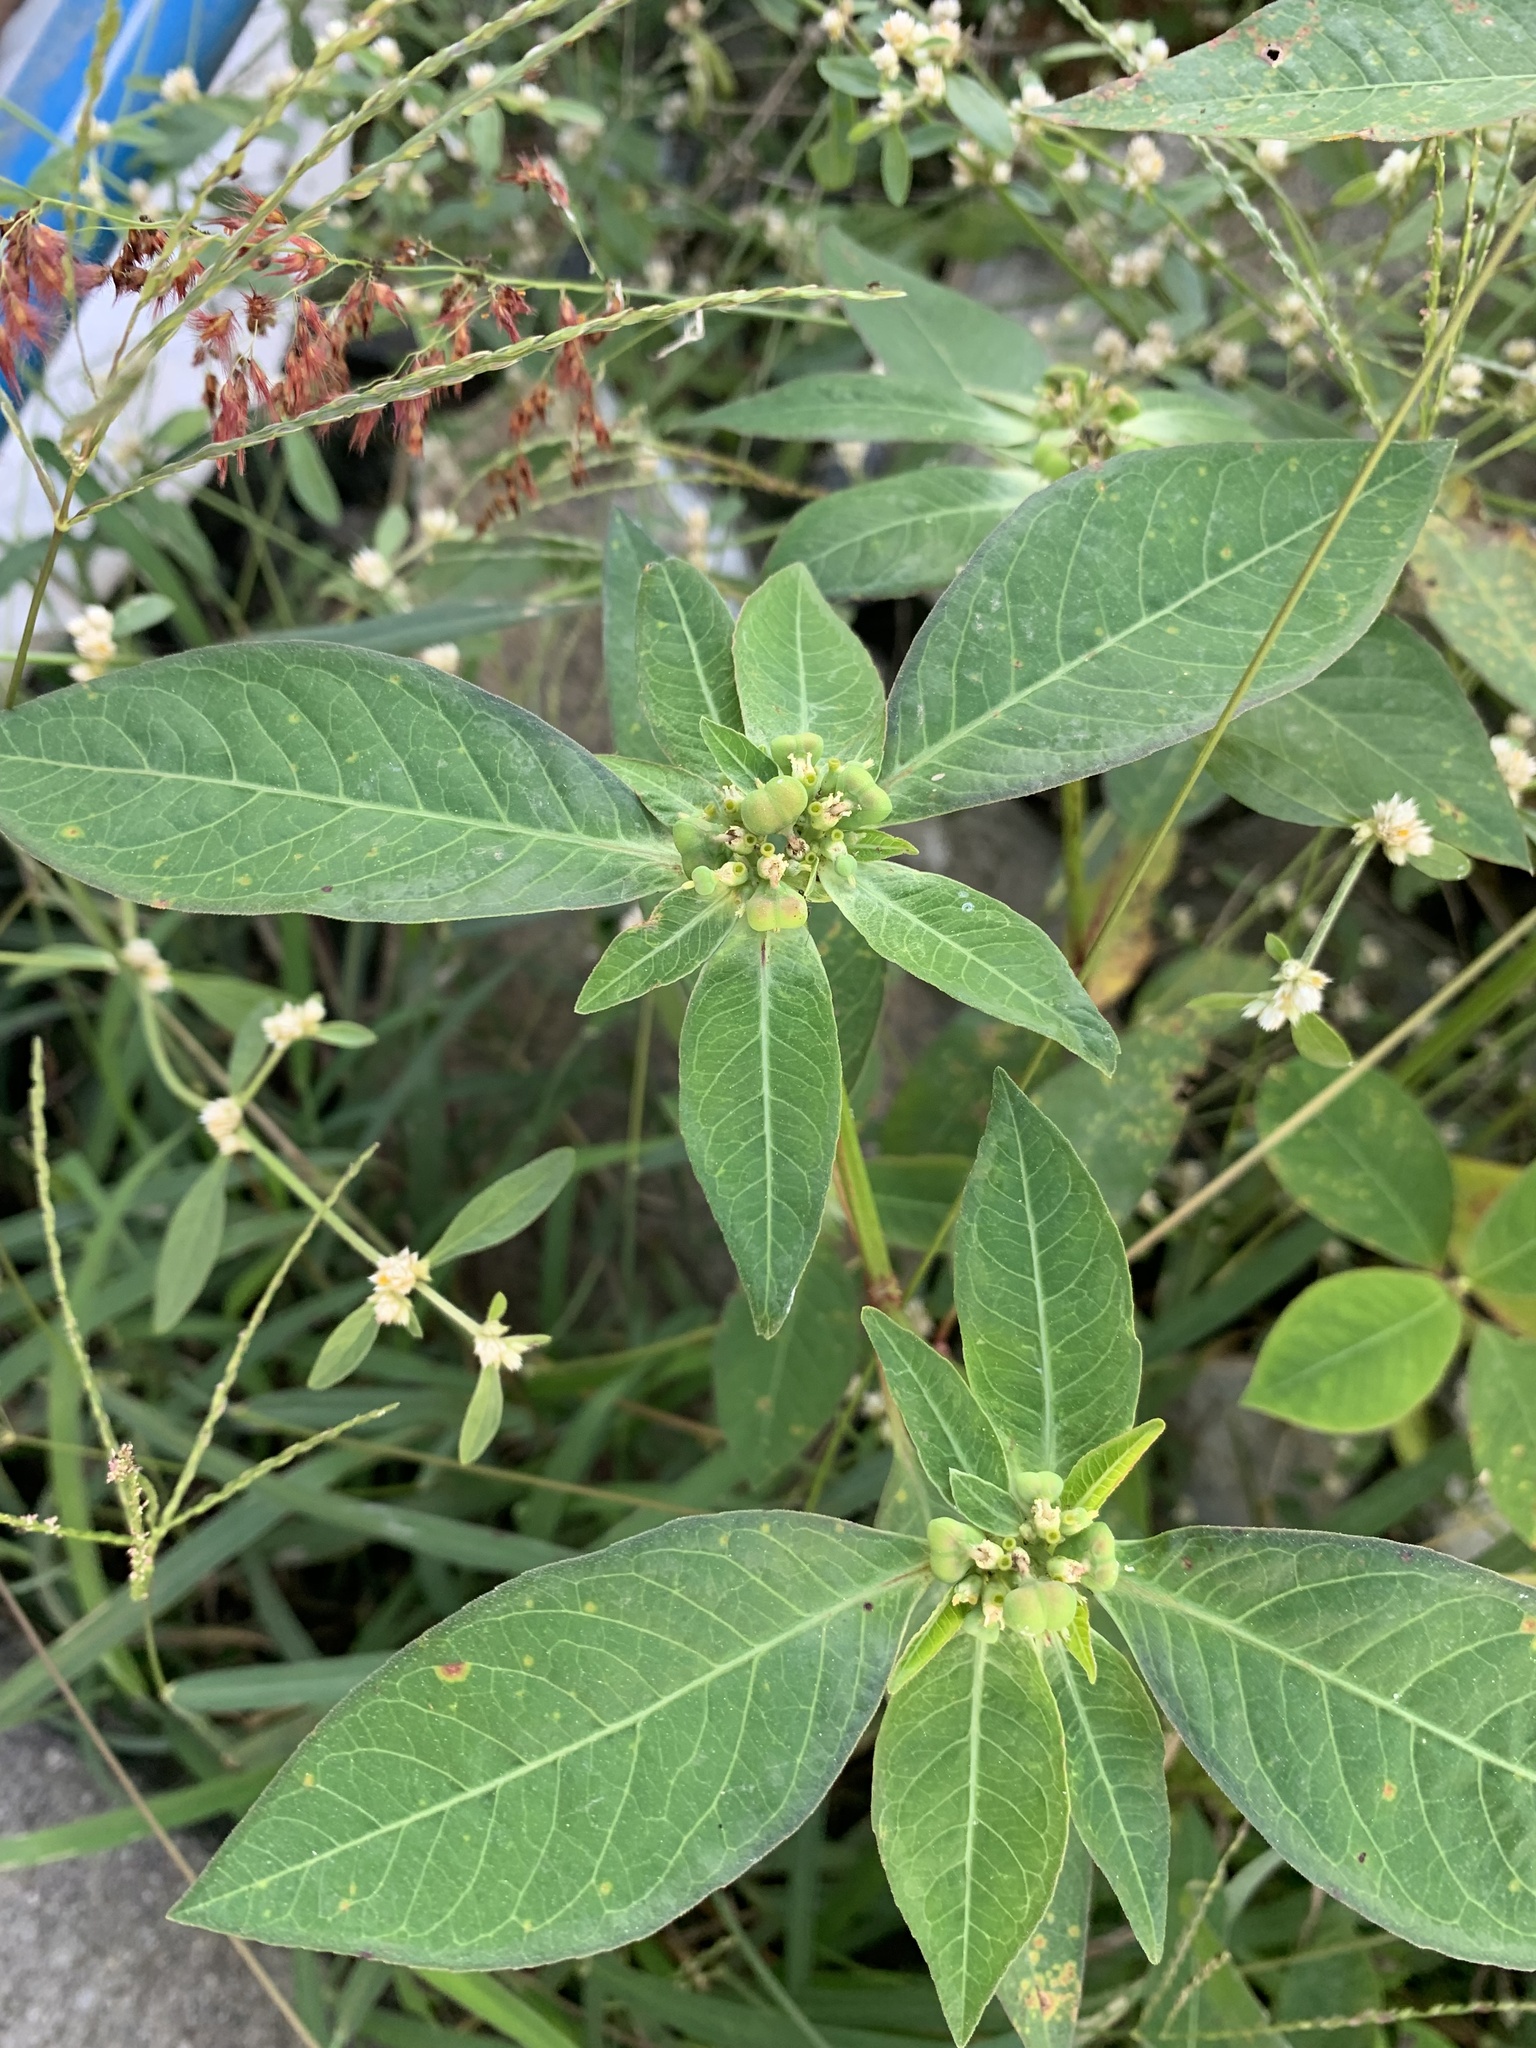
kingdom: Plantae
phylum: Tracheophyta
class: Magnoliopsida
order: Malpighiales
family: Euphorbiaceae
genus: Euphorbia
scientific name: Euphorbia heterophylla
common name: Mexican fireplant
